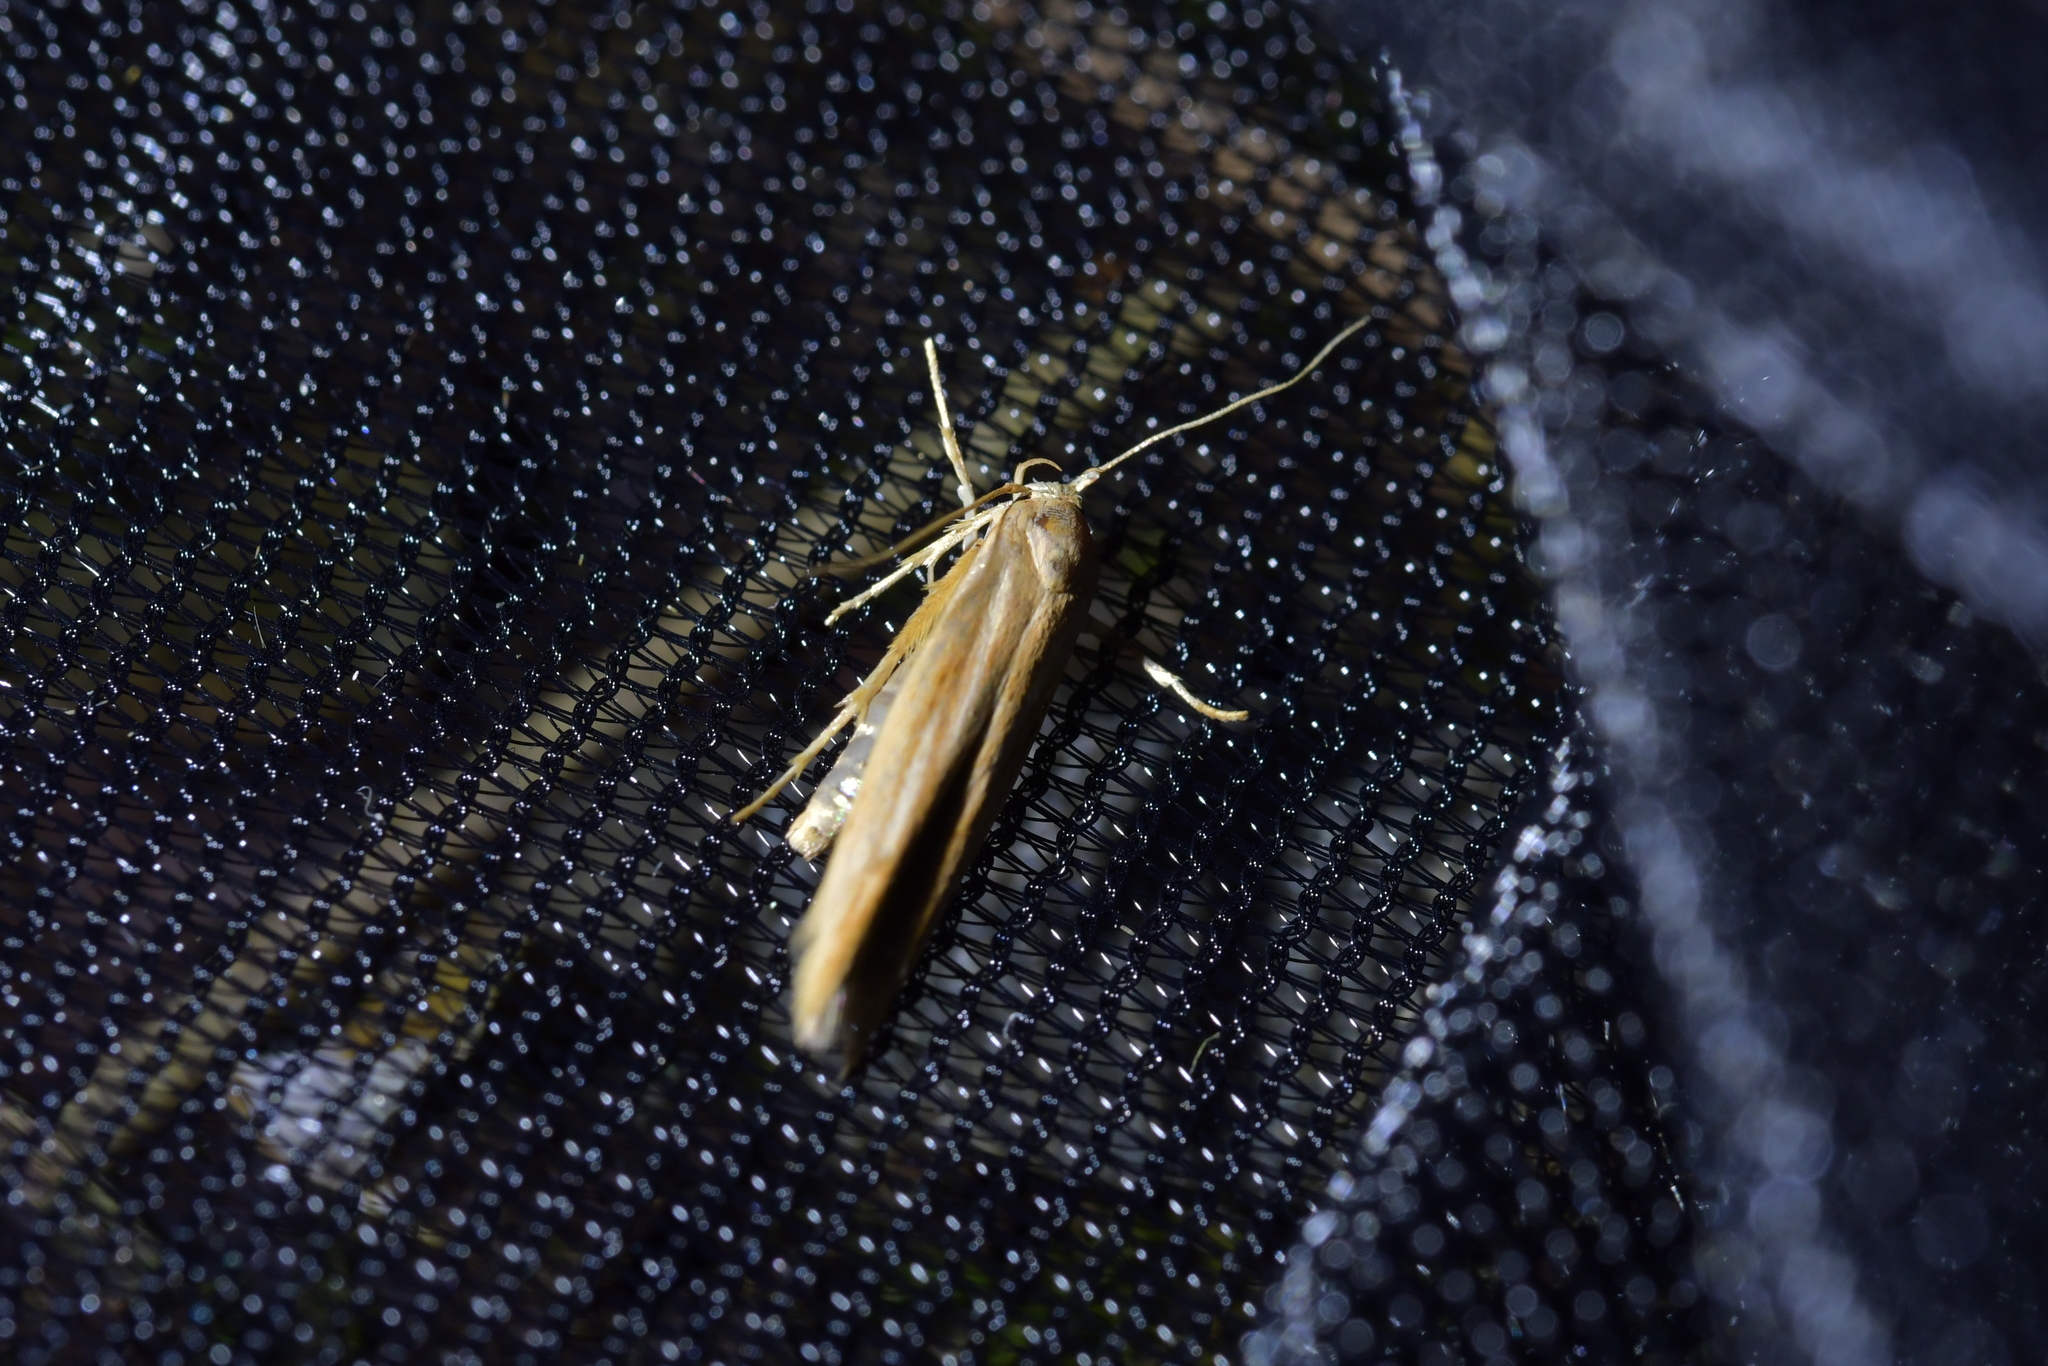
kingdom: Animalia
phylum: Arthropoda
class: Insecta
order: Lepidoptera
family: Stathmopodidae
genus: Stathmopoda
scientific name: Stathmopoda aposema
